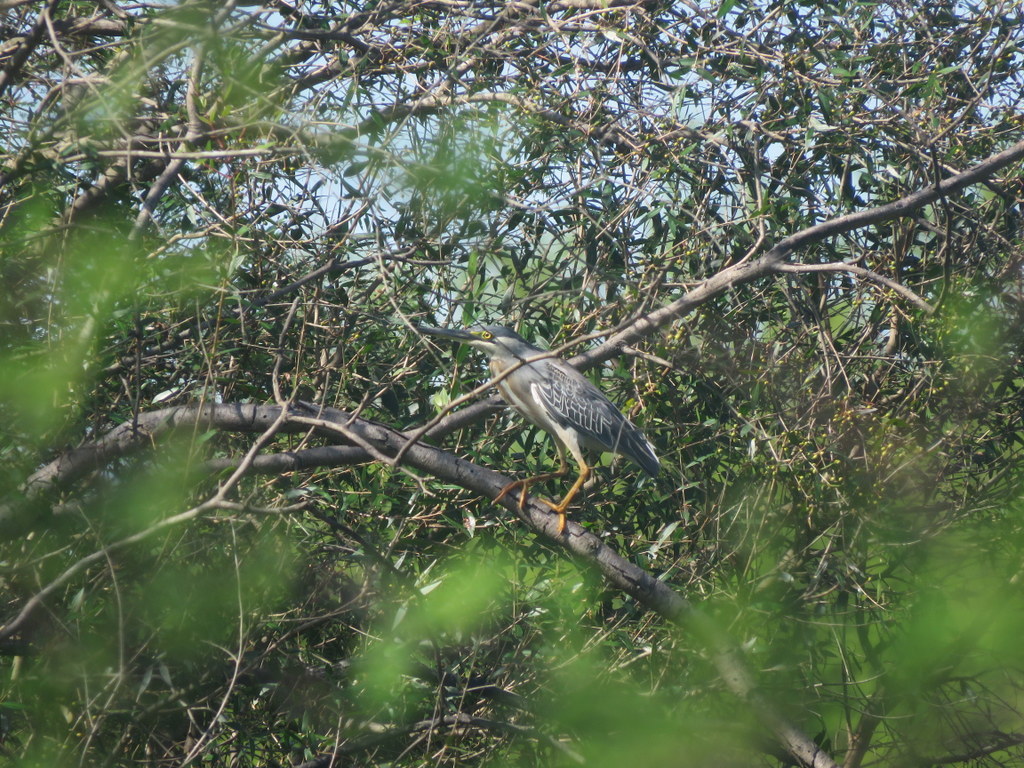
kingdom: Animalia
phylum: Chordata
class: Aves
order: Pelecaniformes
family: Ardeidae
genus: Butorides
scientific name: Butorides striata
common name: Striated heron
